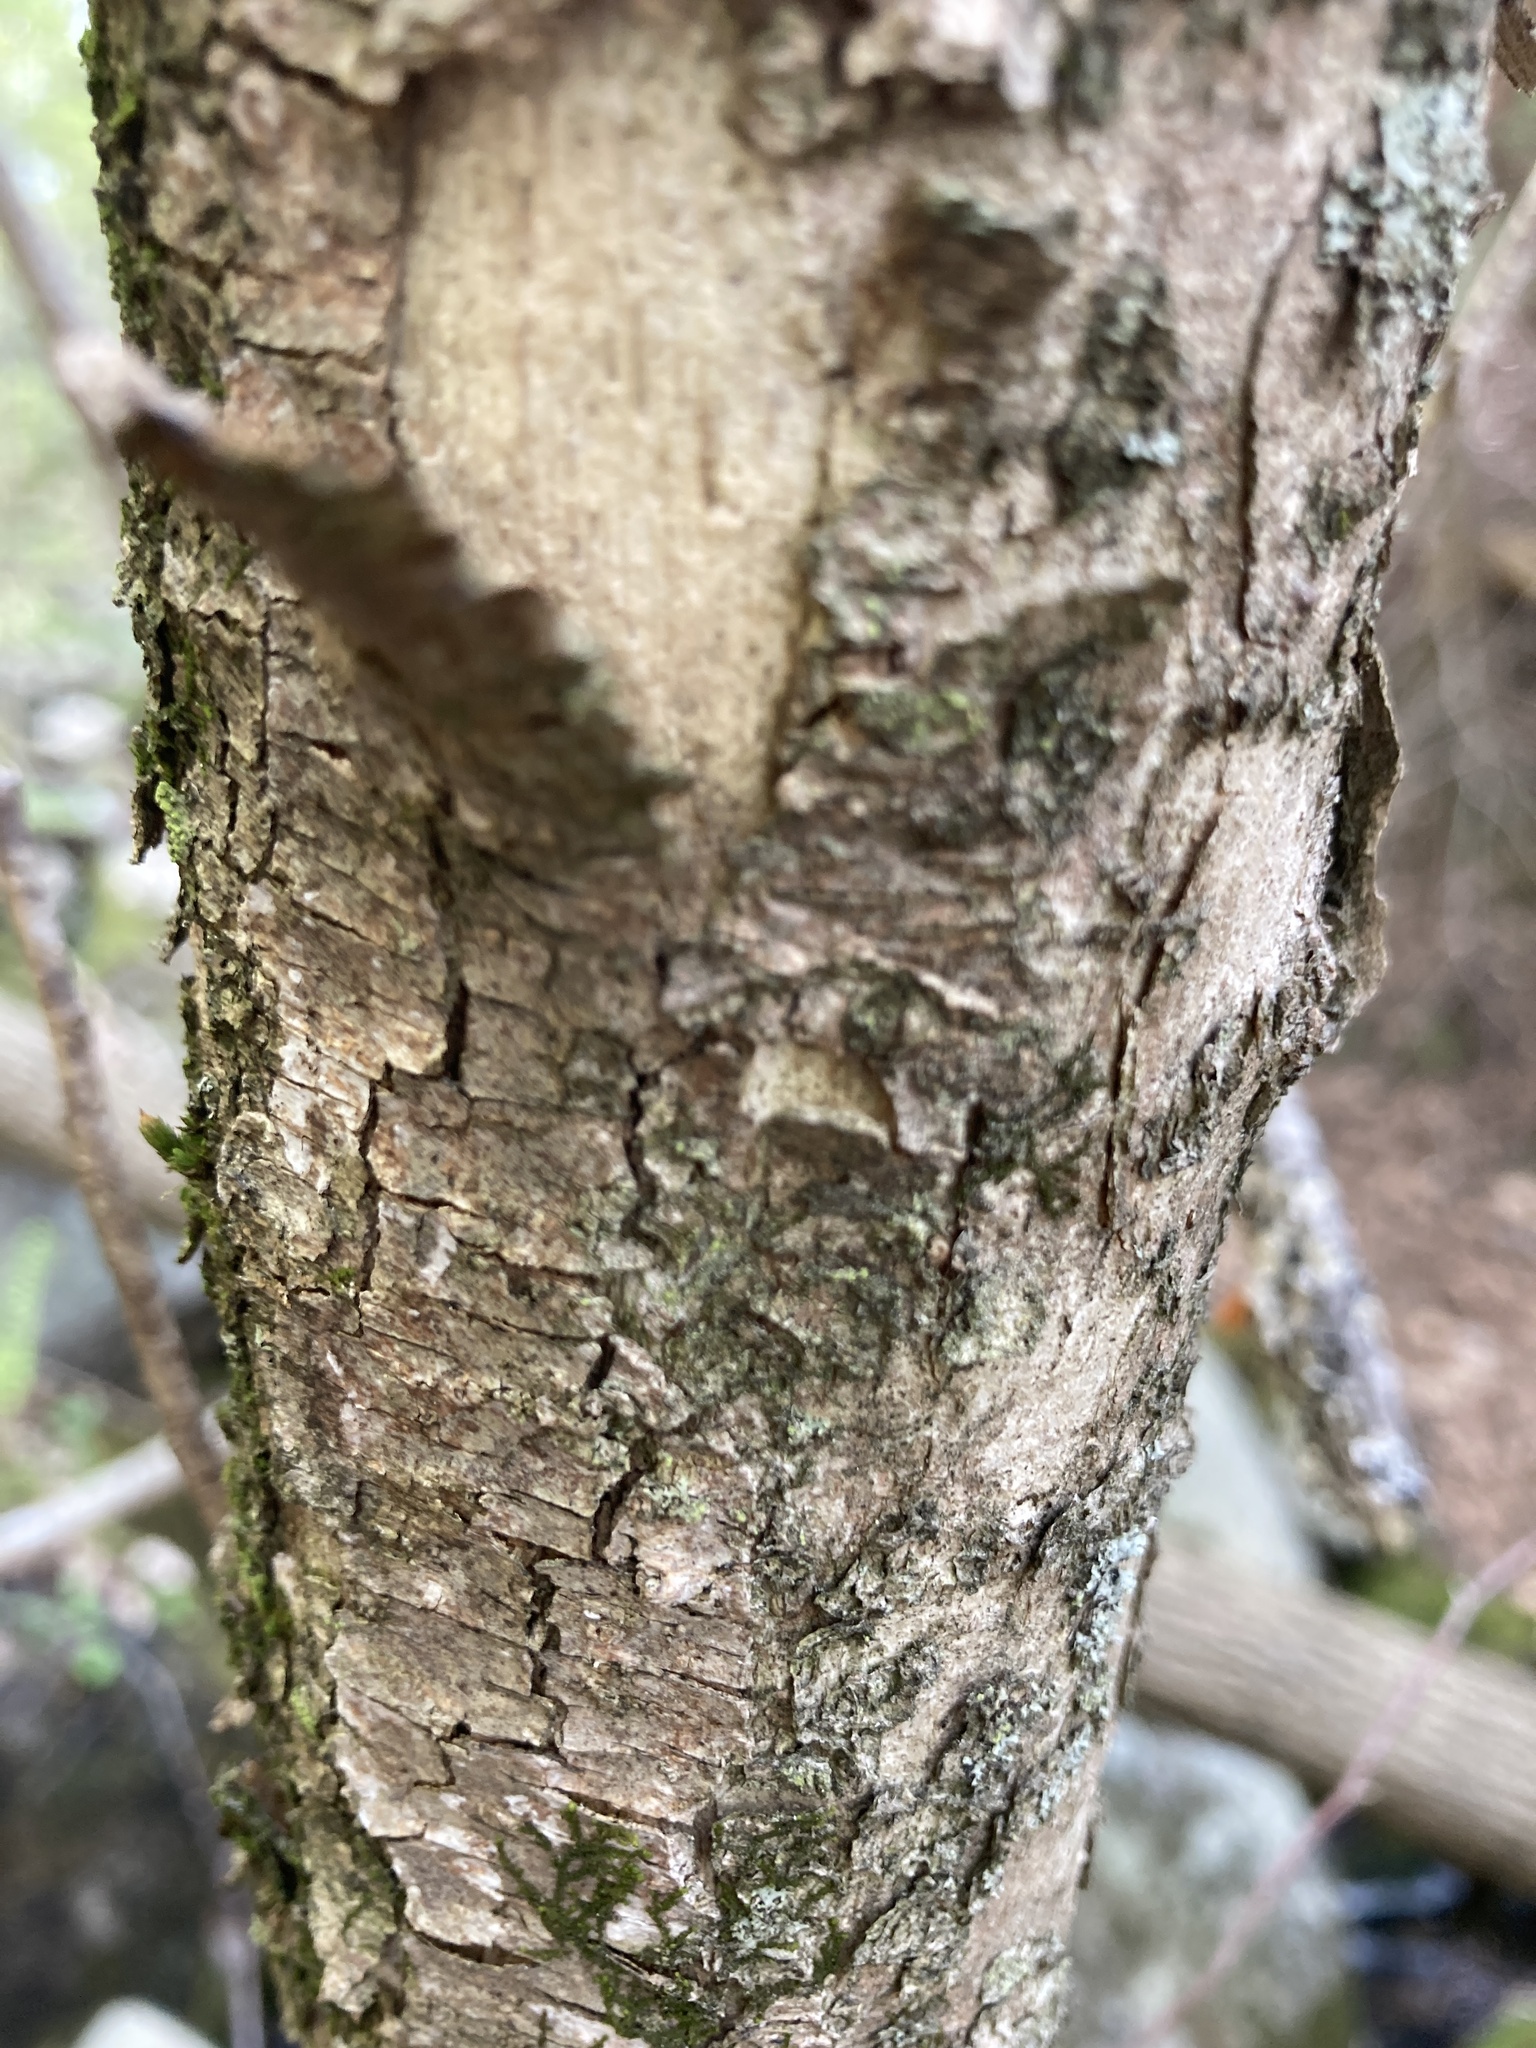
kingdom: Plantae
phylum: Tracheophyta
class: Magnoliopsida
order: Fagales
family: Betulaceae
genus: Ostrya
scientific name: Ostrya virginiana
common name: Ironwood
